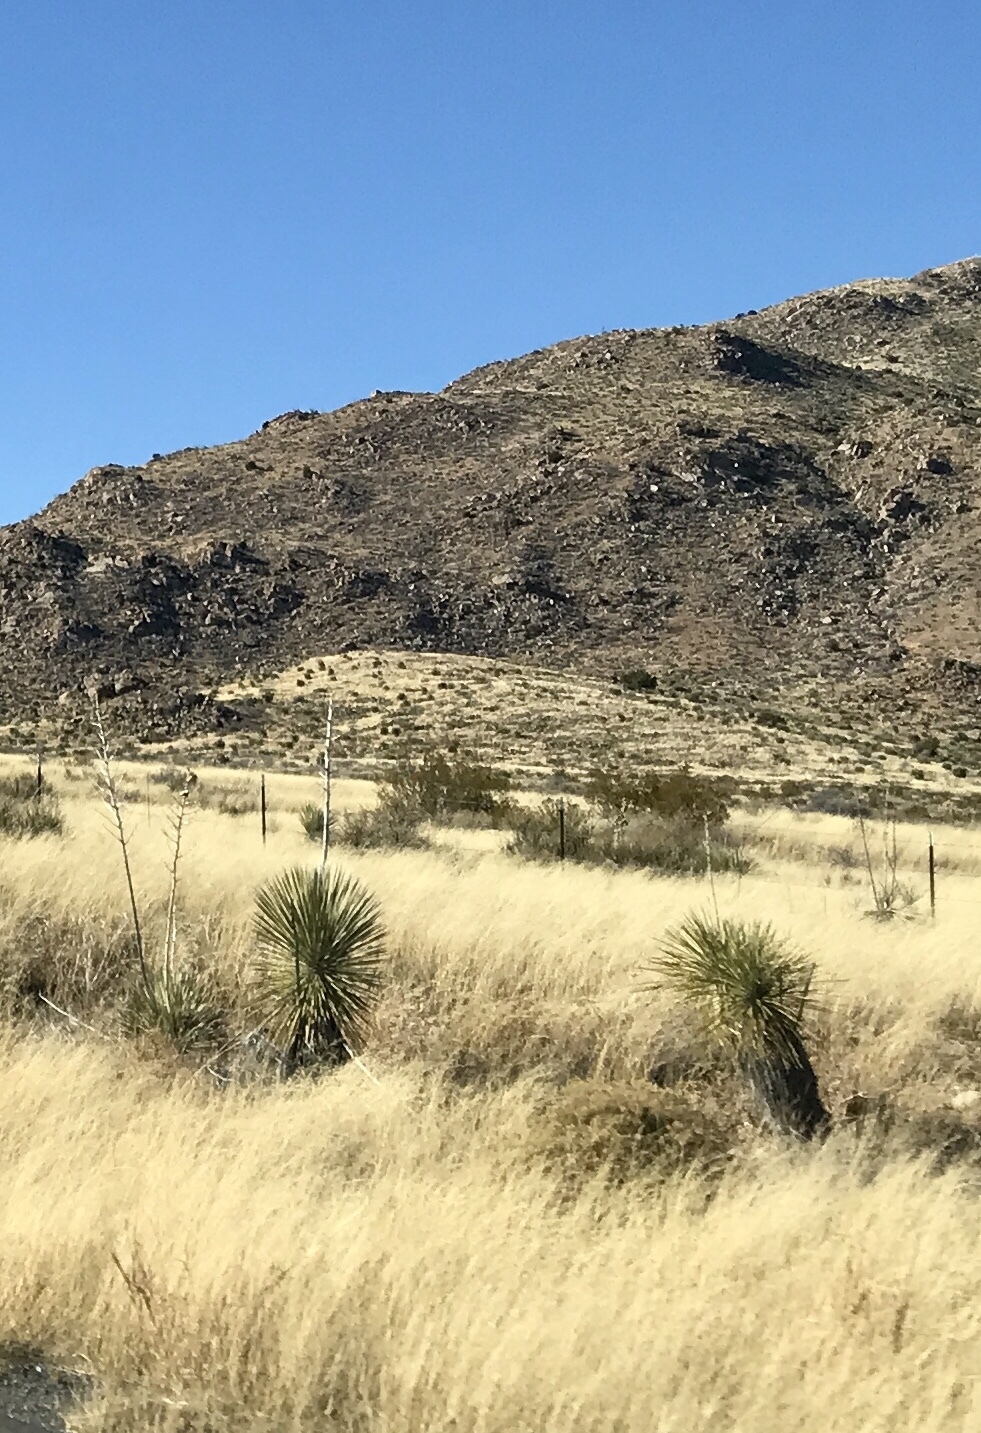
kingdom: Plantae
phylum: Tracheophyta
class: Liliopsida
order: Asparagales
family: Asparagaceae
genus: Yucca
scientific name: Yucca elata
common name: Palmella
